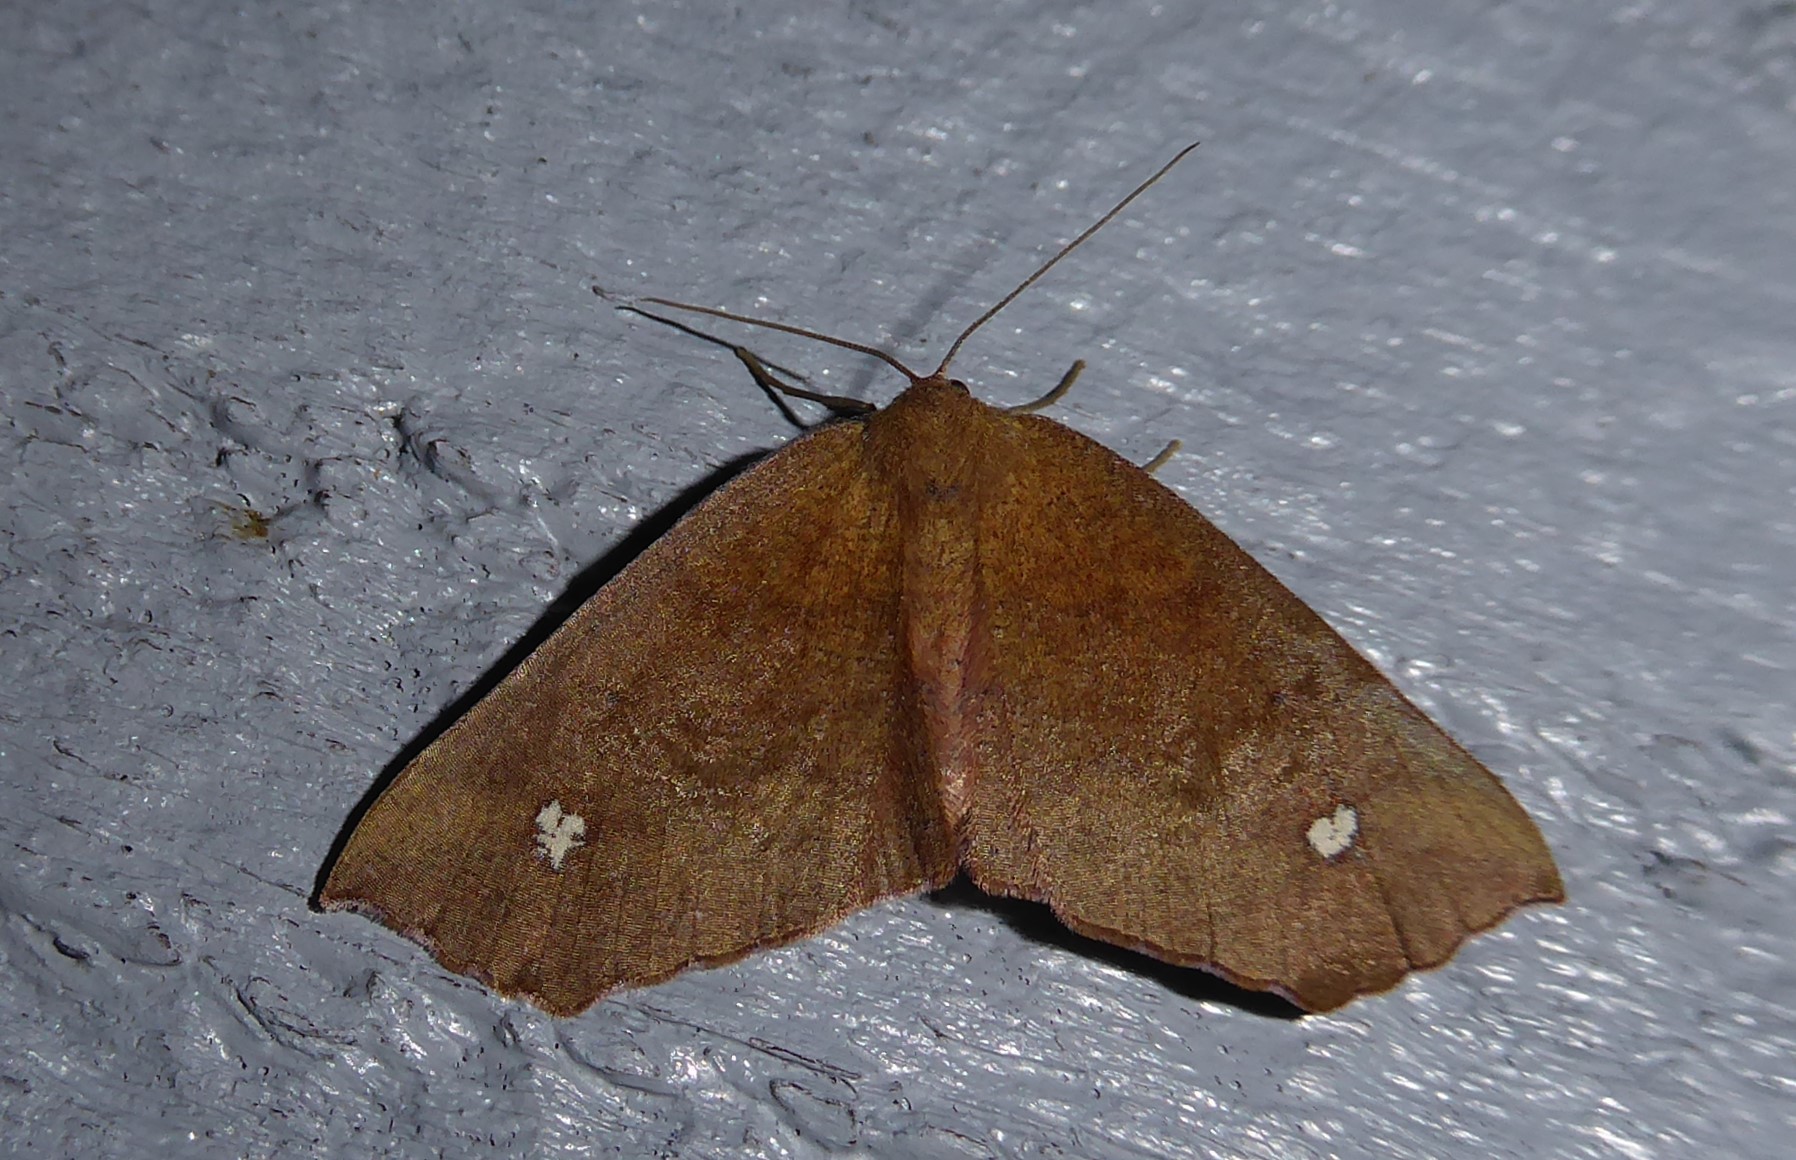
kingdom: Animalia
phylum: Arthropoda
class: Insecta
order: Lepidoptera
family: Geometridae
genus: Xyridacma
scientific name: Xyridacma ustaria
